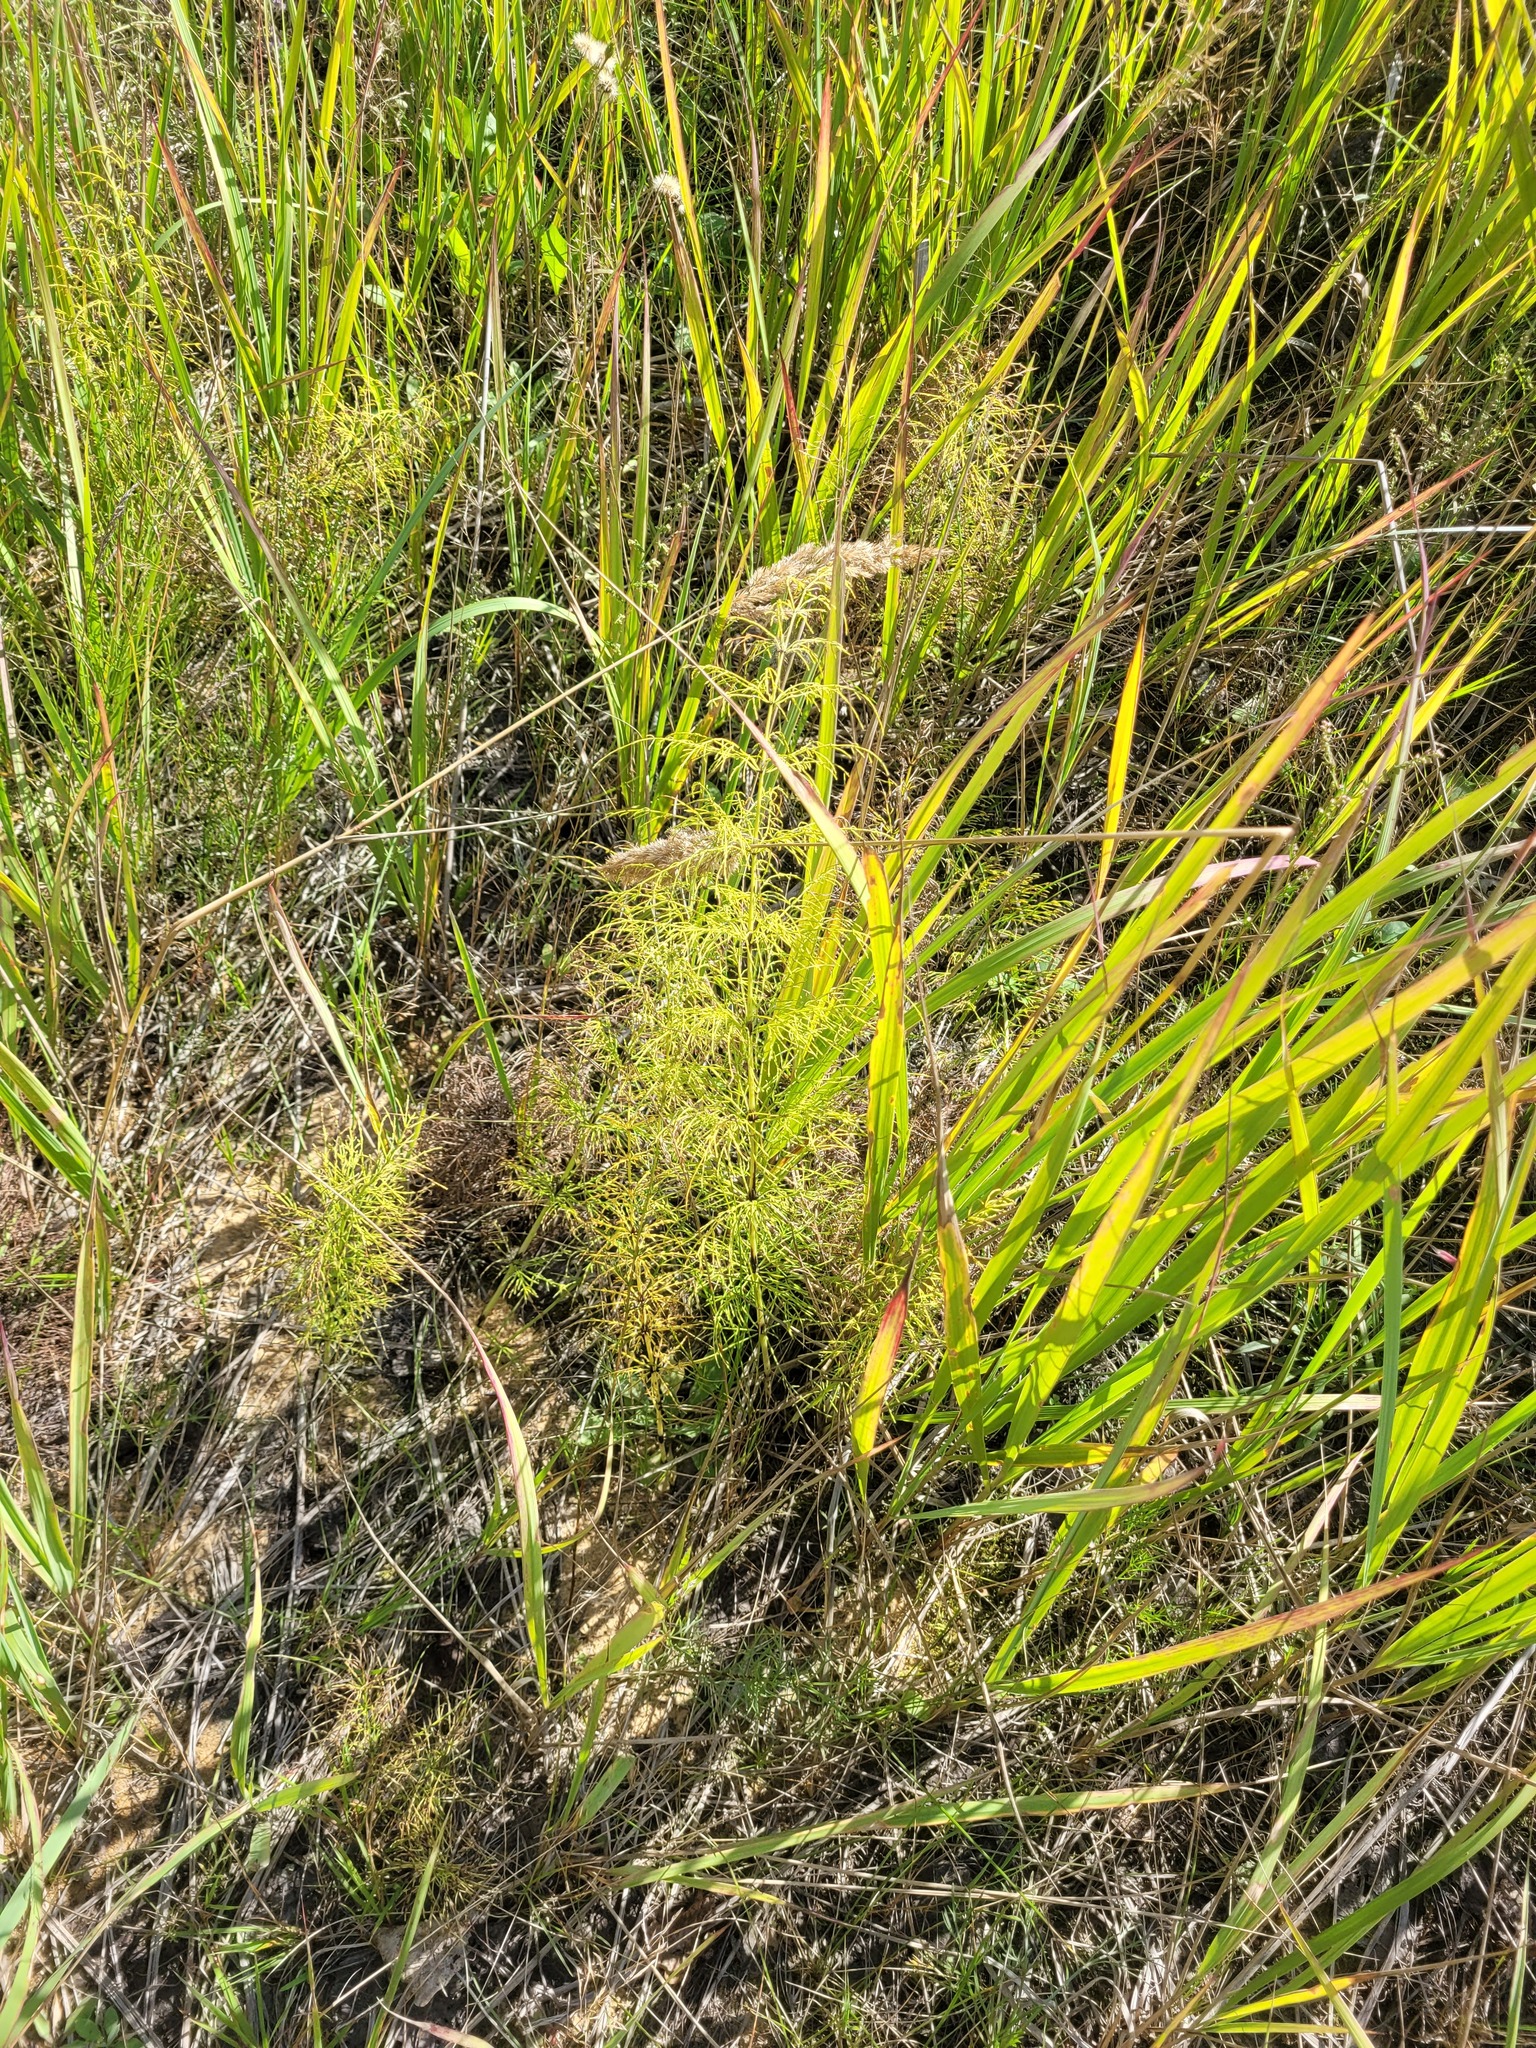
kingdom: Plantae
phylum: Tracheophyta
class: Polypodiopsida
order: Equisetales
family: Equisetaceae
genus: Equisetum
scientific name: Equisetum sylvaticum
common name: Wood horsetail
